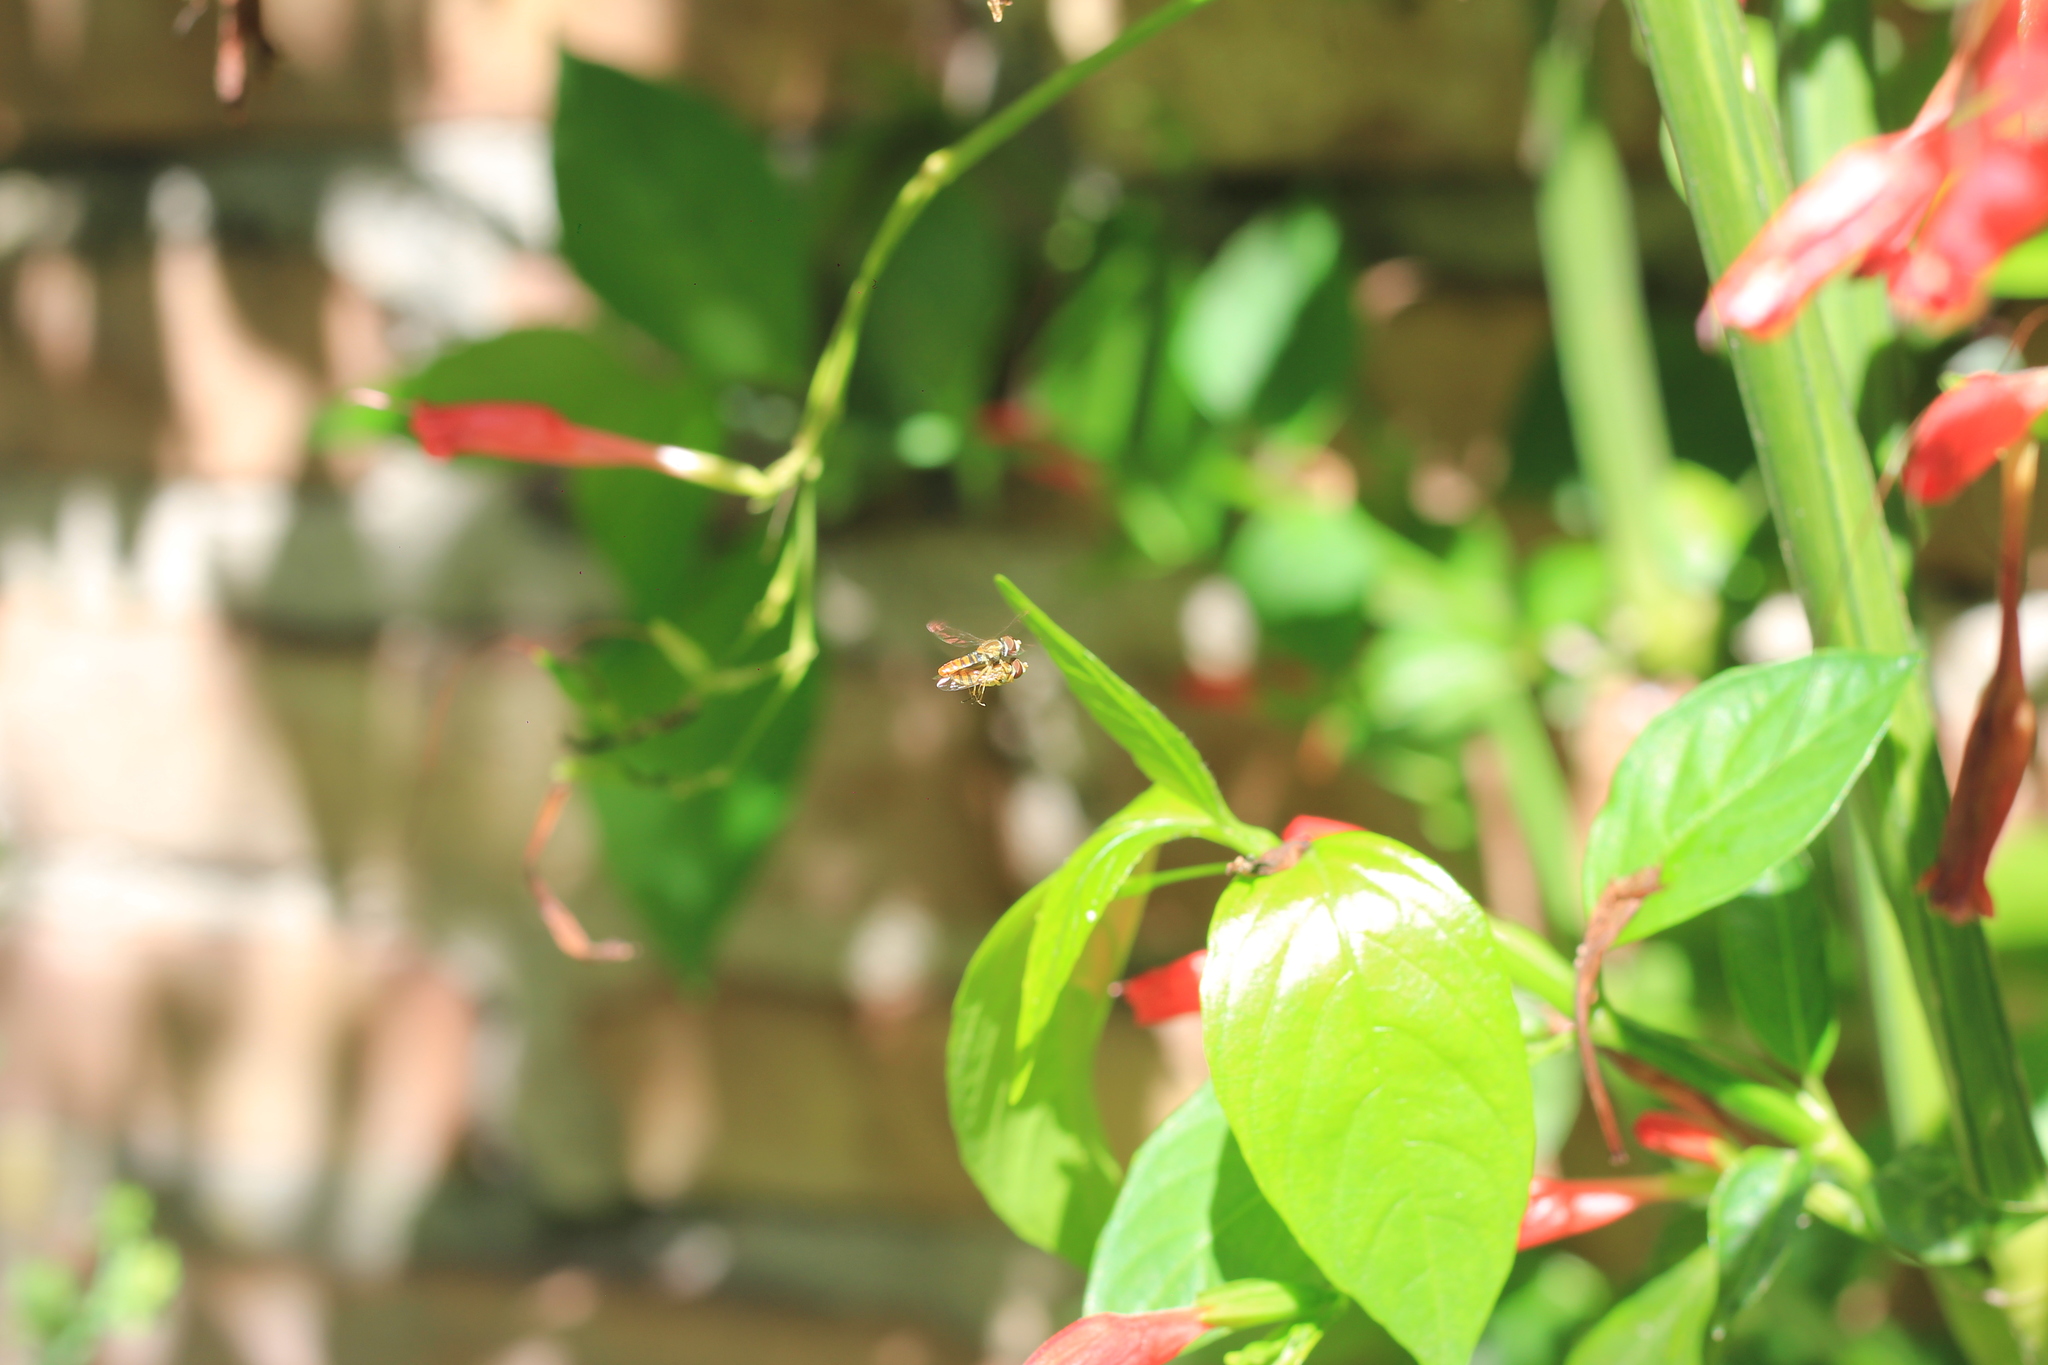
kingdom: Animalia
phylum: Arthropoda
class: Insecta
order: Diptera
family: Syrphidae
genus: Toxomerus
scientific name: Toxomerus
